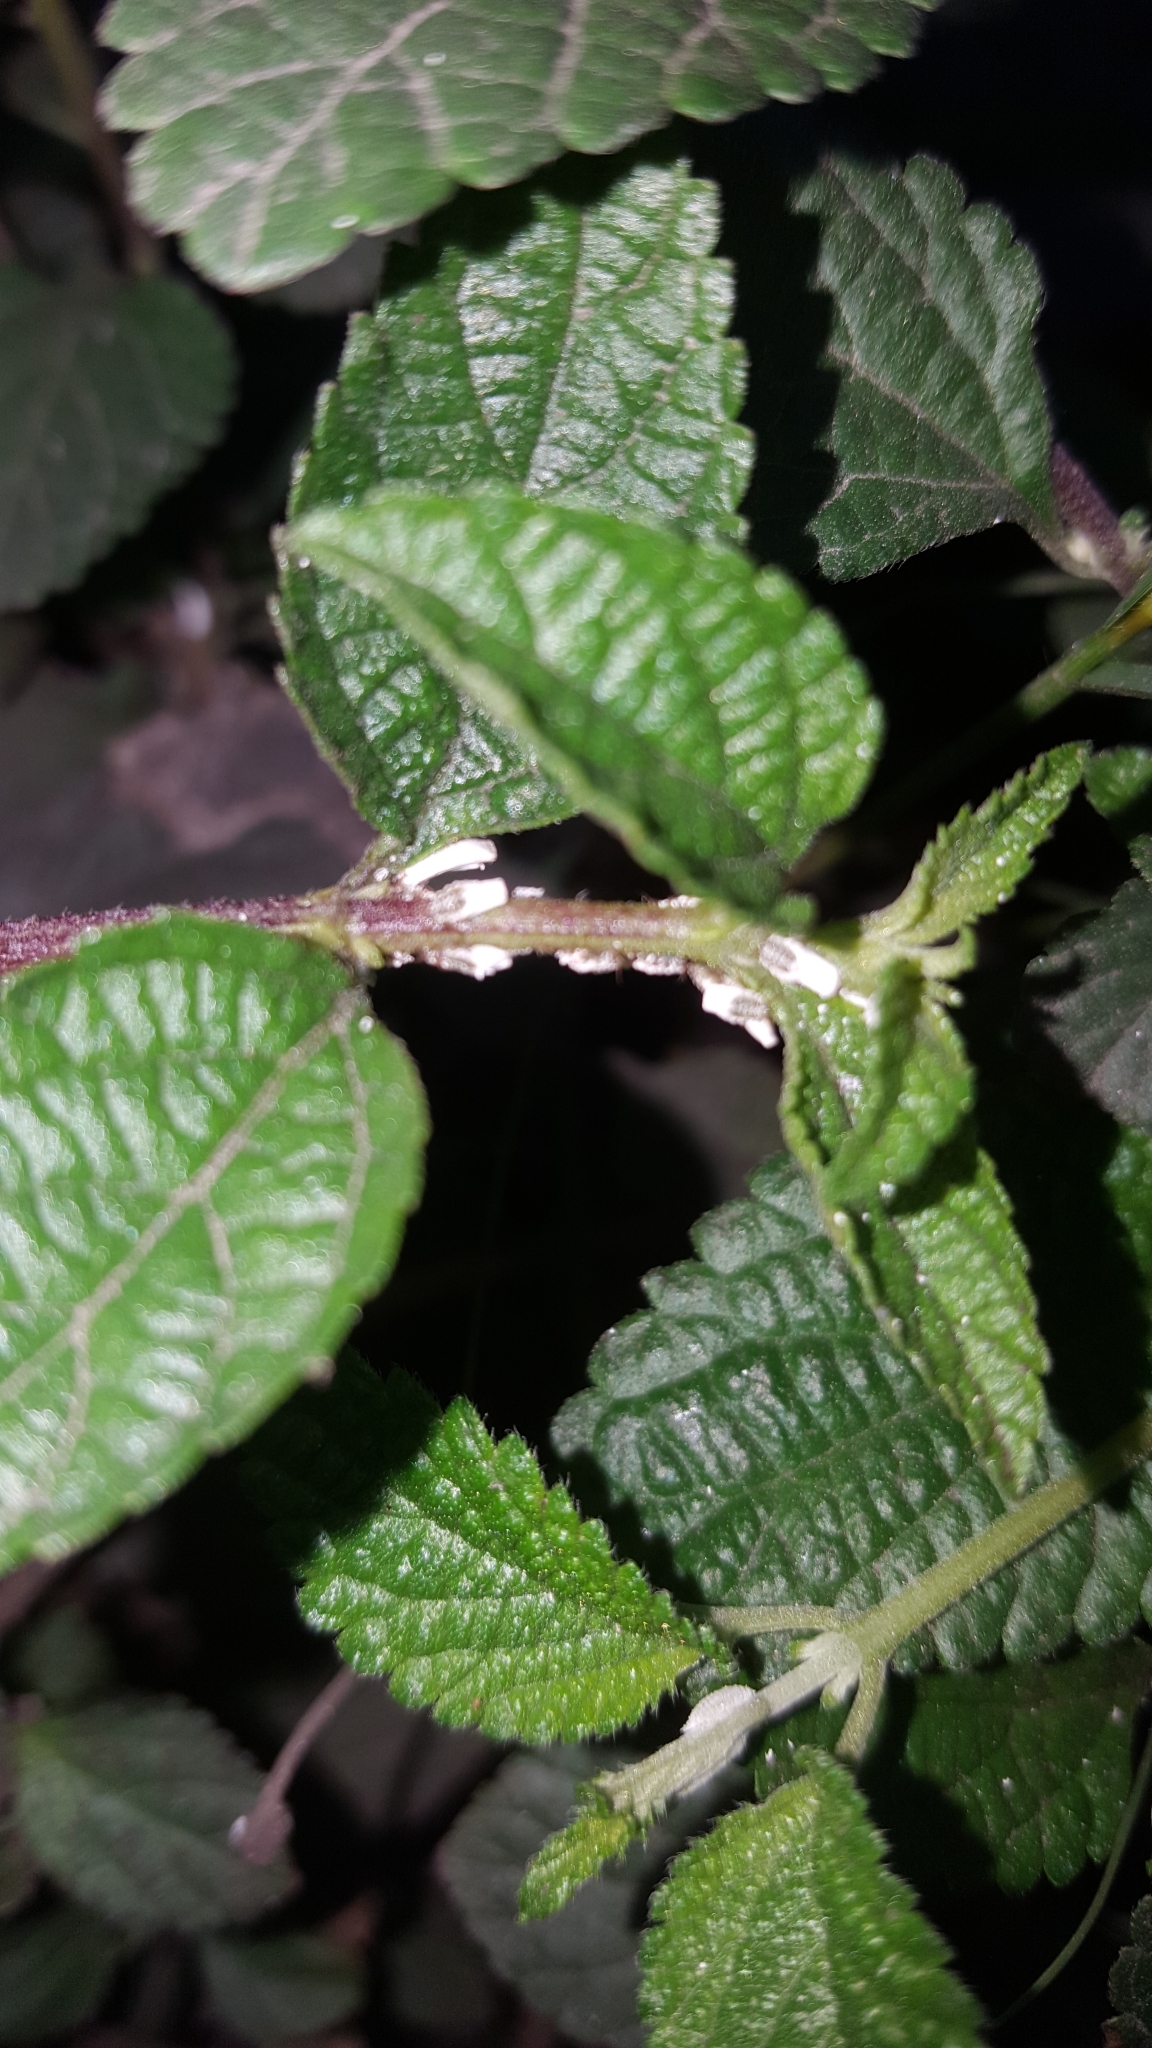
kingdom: Animalia
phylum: Arthropoda
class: Insecta
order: Hemiptera
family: Ortheziidae
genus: Insignorthezia
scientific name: Insignorthezia insignis
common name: Greenhouse orthezia
